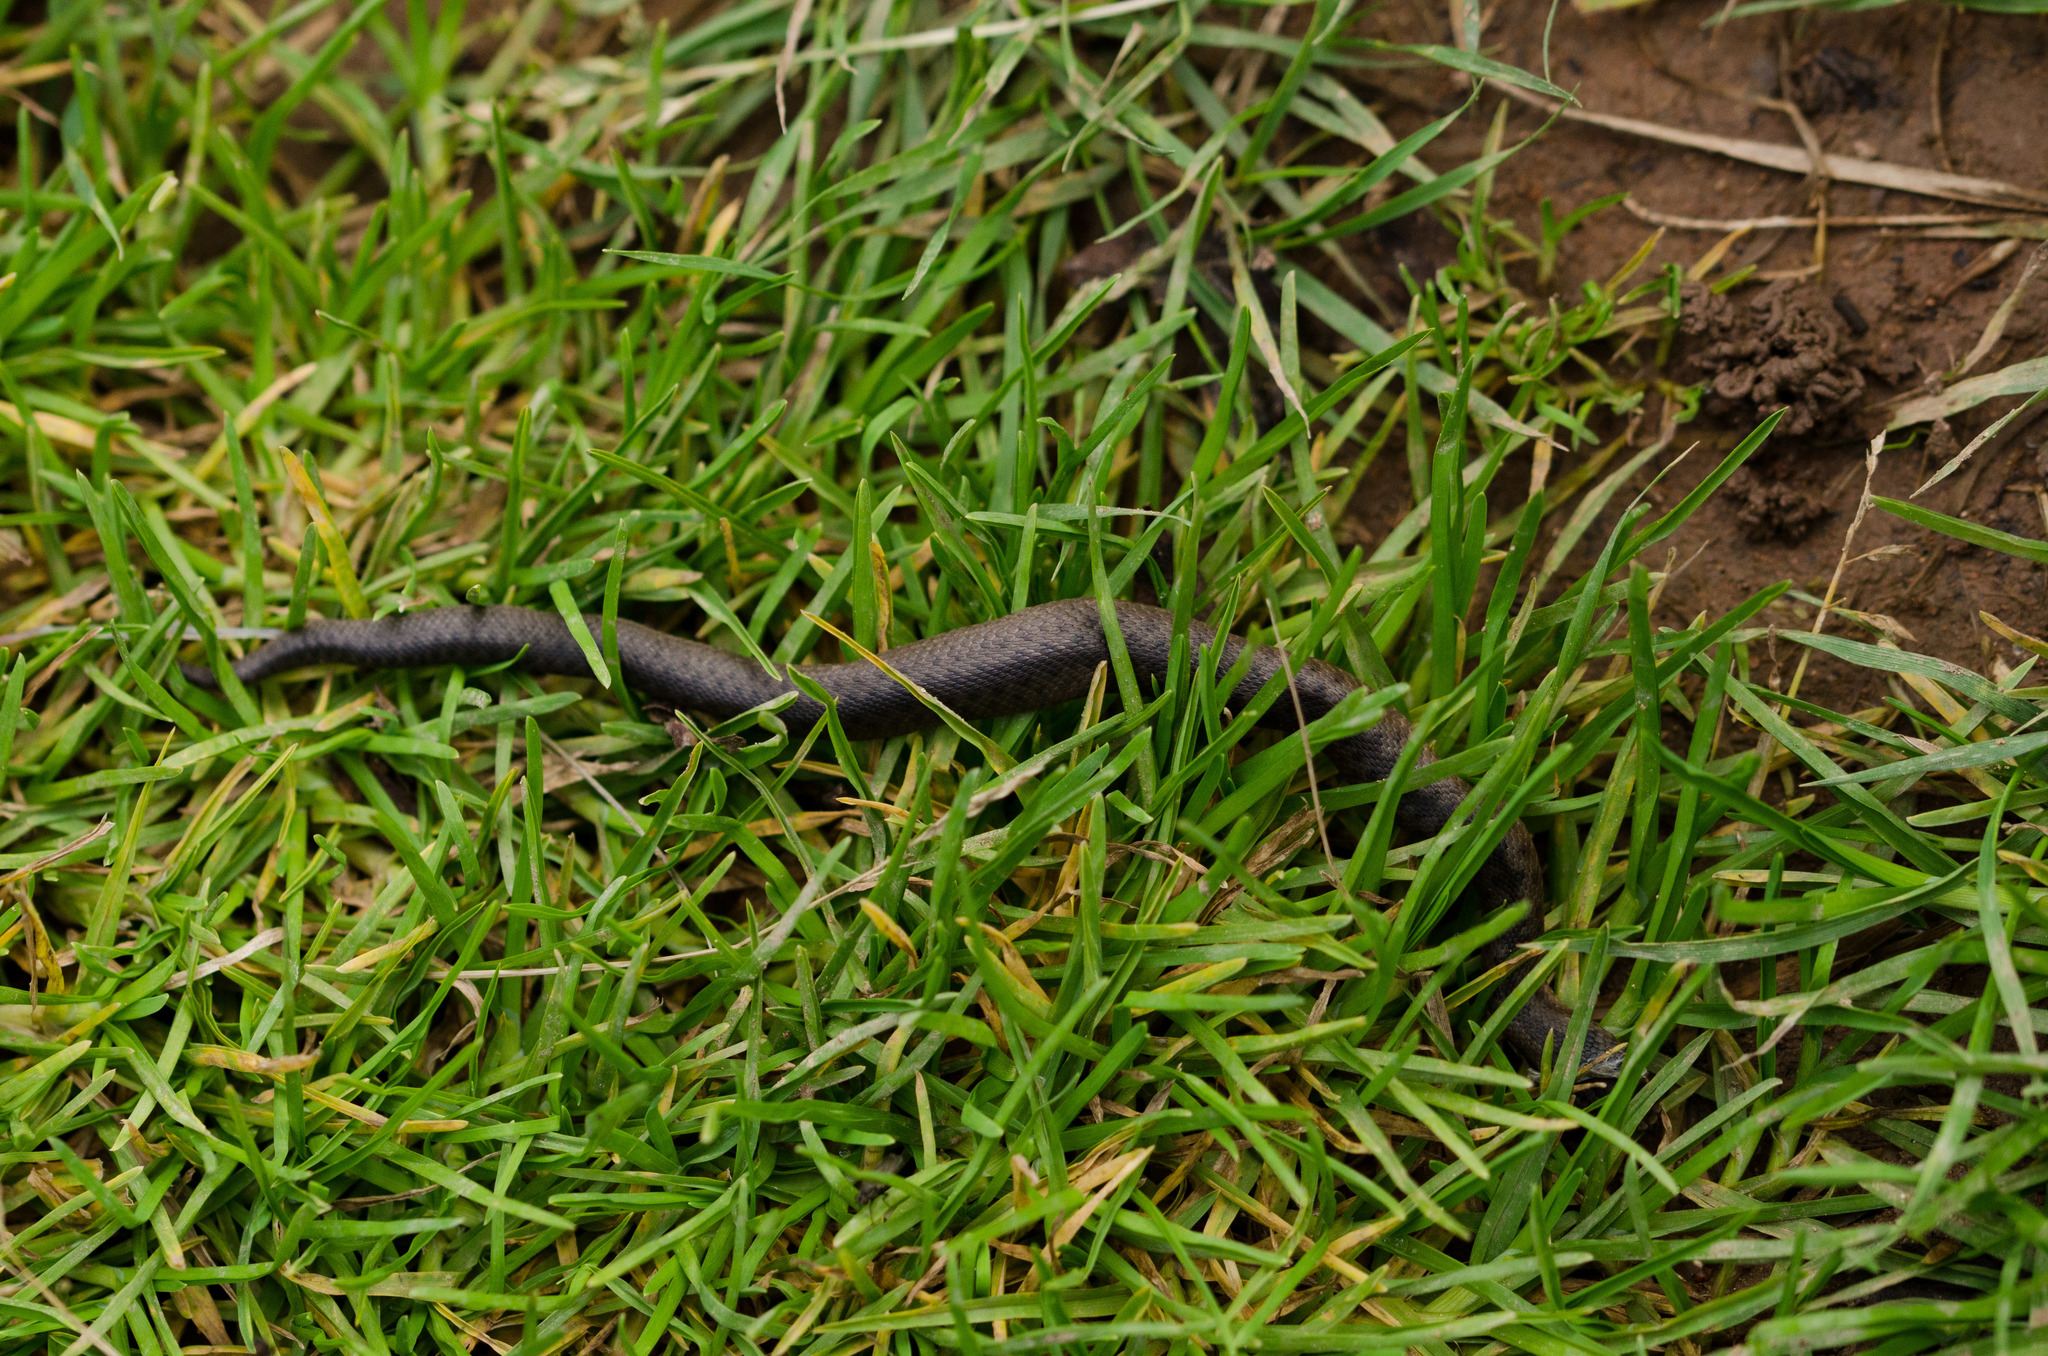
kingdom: Animalia
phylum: Chordata
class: Squamata
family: Viperidae
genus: Vipera
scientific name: Vipera berus
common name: Adder
